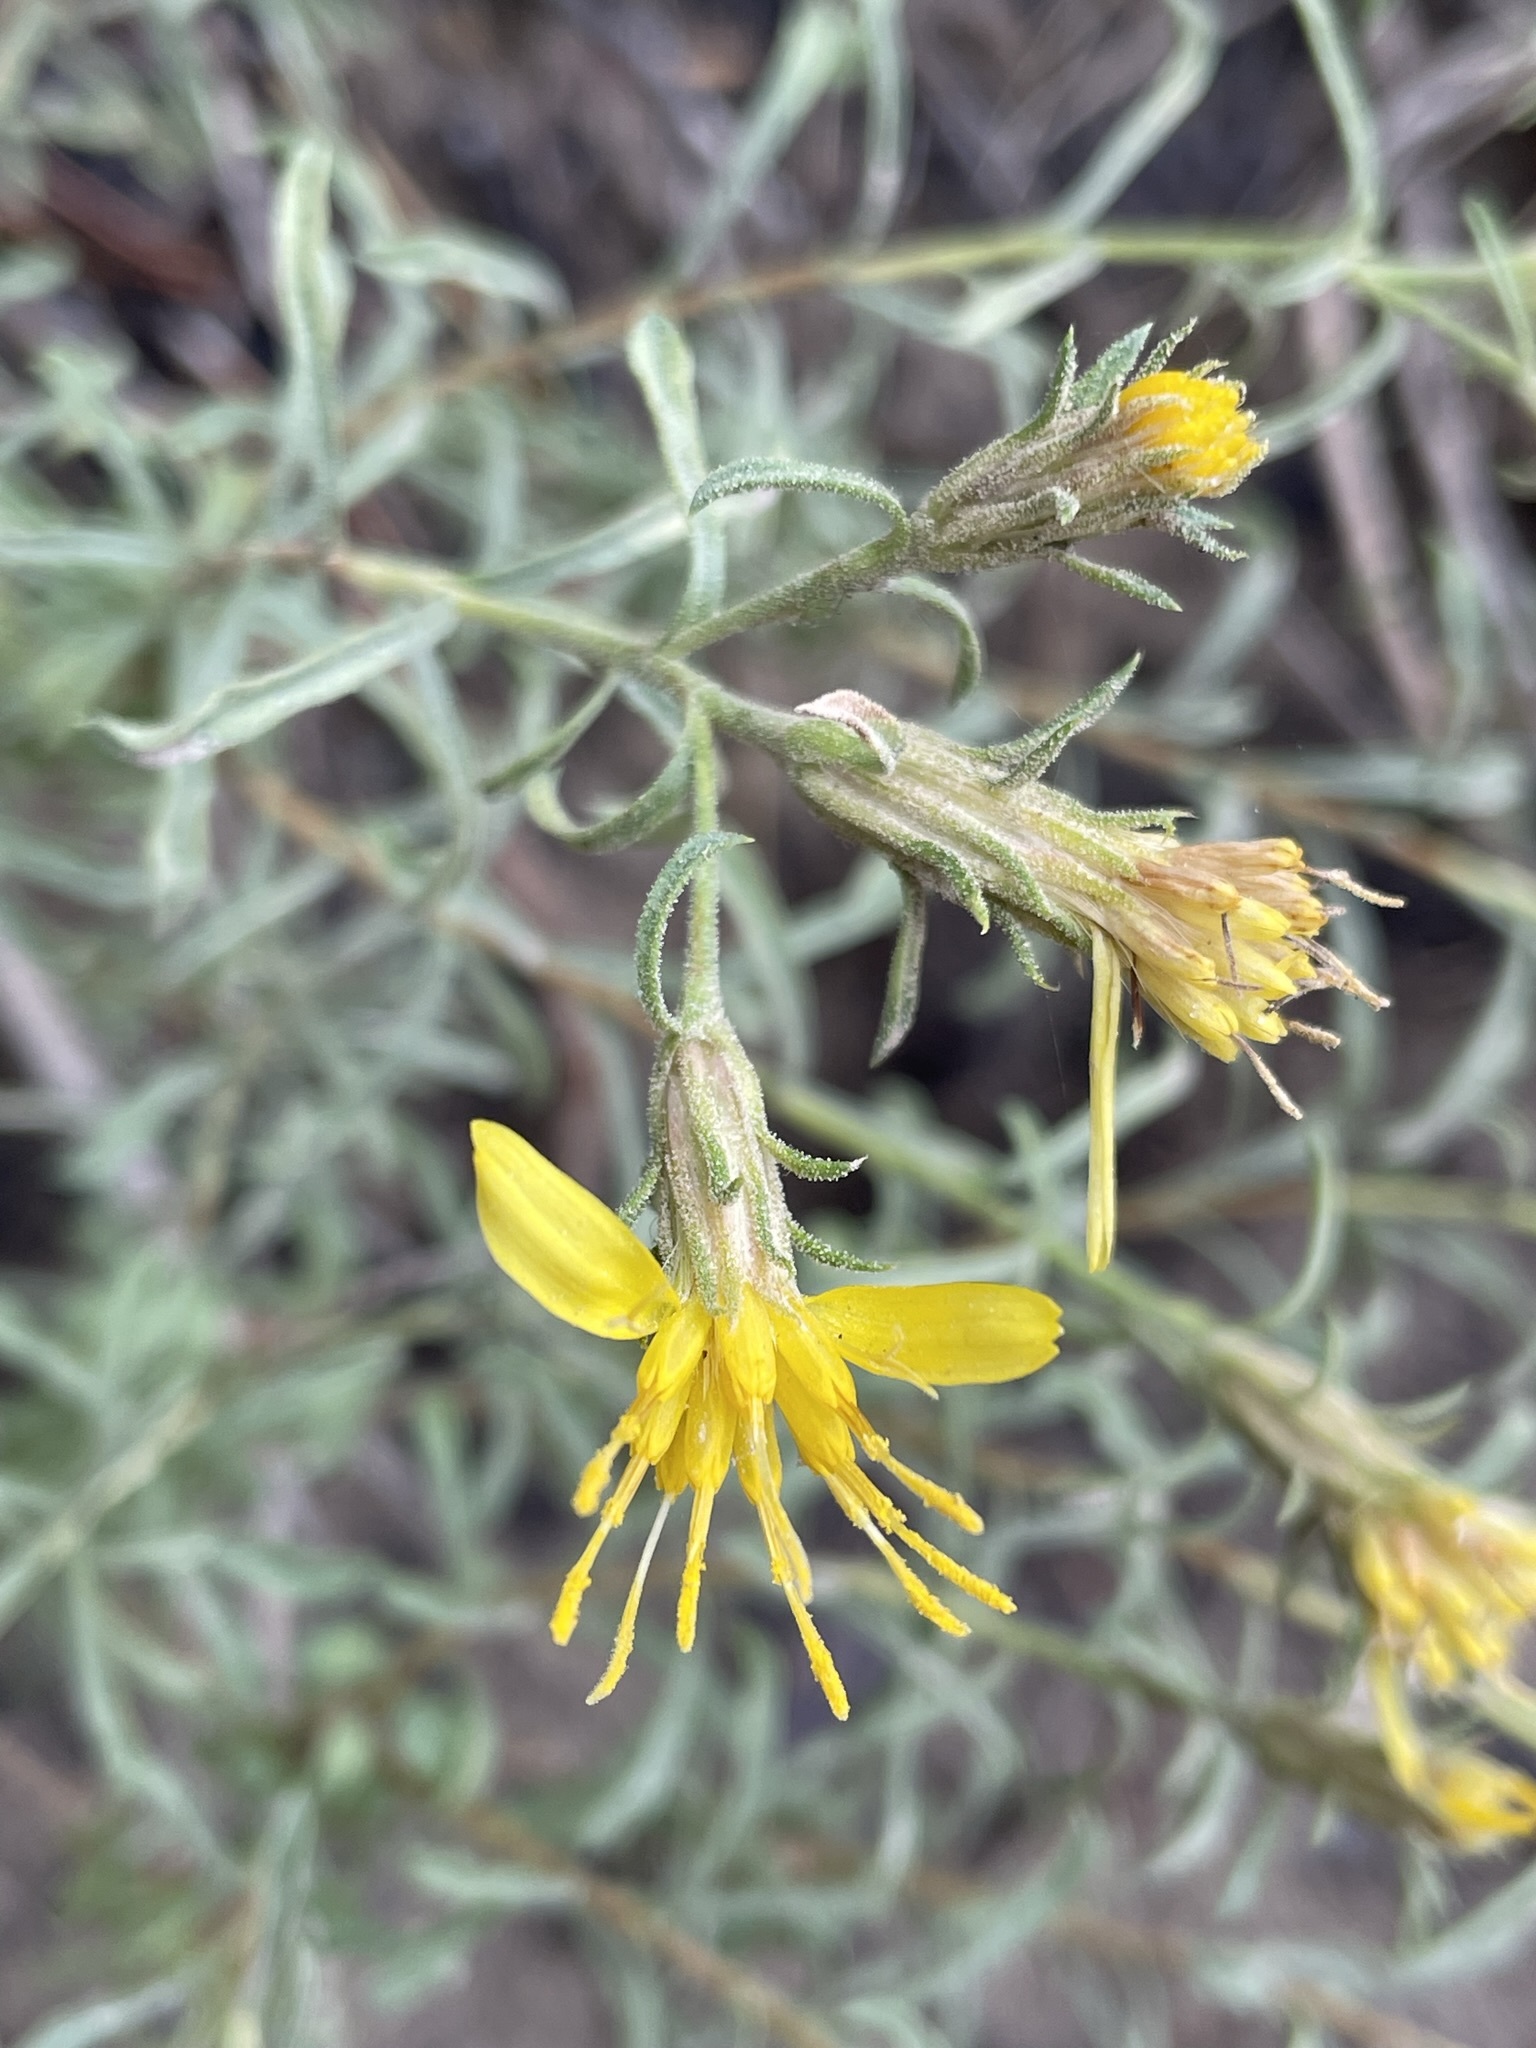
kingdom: Plantae
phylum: Tracheophyta
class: Magnoliopsida
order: Asterales
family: Asteraceae
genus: Ericameria
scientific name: Ericameria suffruticosa
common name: Goldenweed
